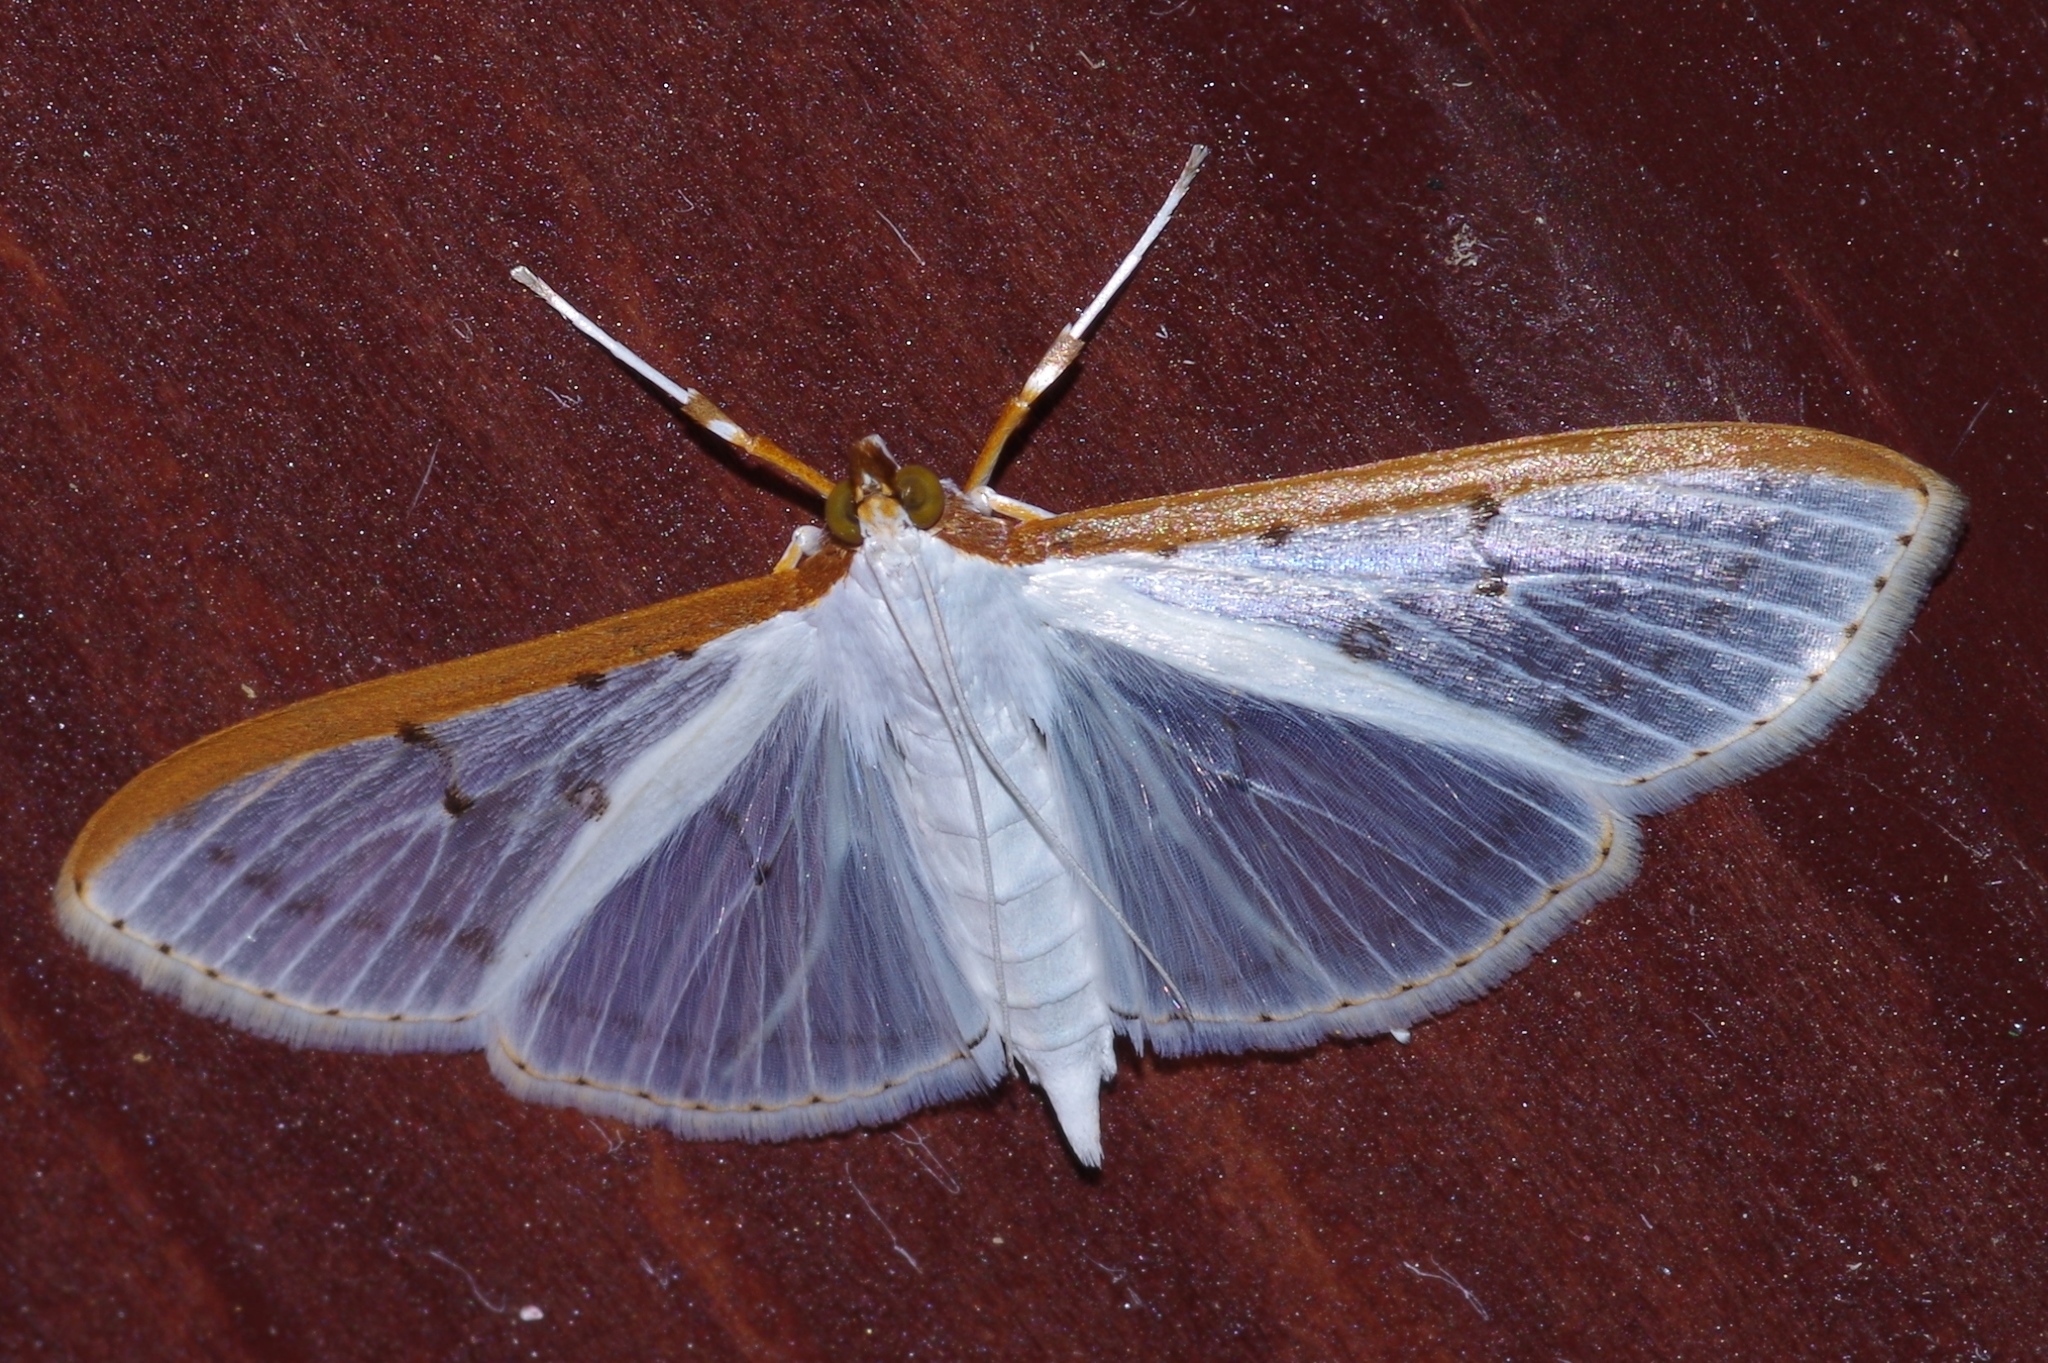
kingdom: Animalia
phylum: Arthropoda
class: Insecta
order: Lepidoptera
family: Crambidae
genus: Palpita
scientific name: Palpita nigropunctalis
